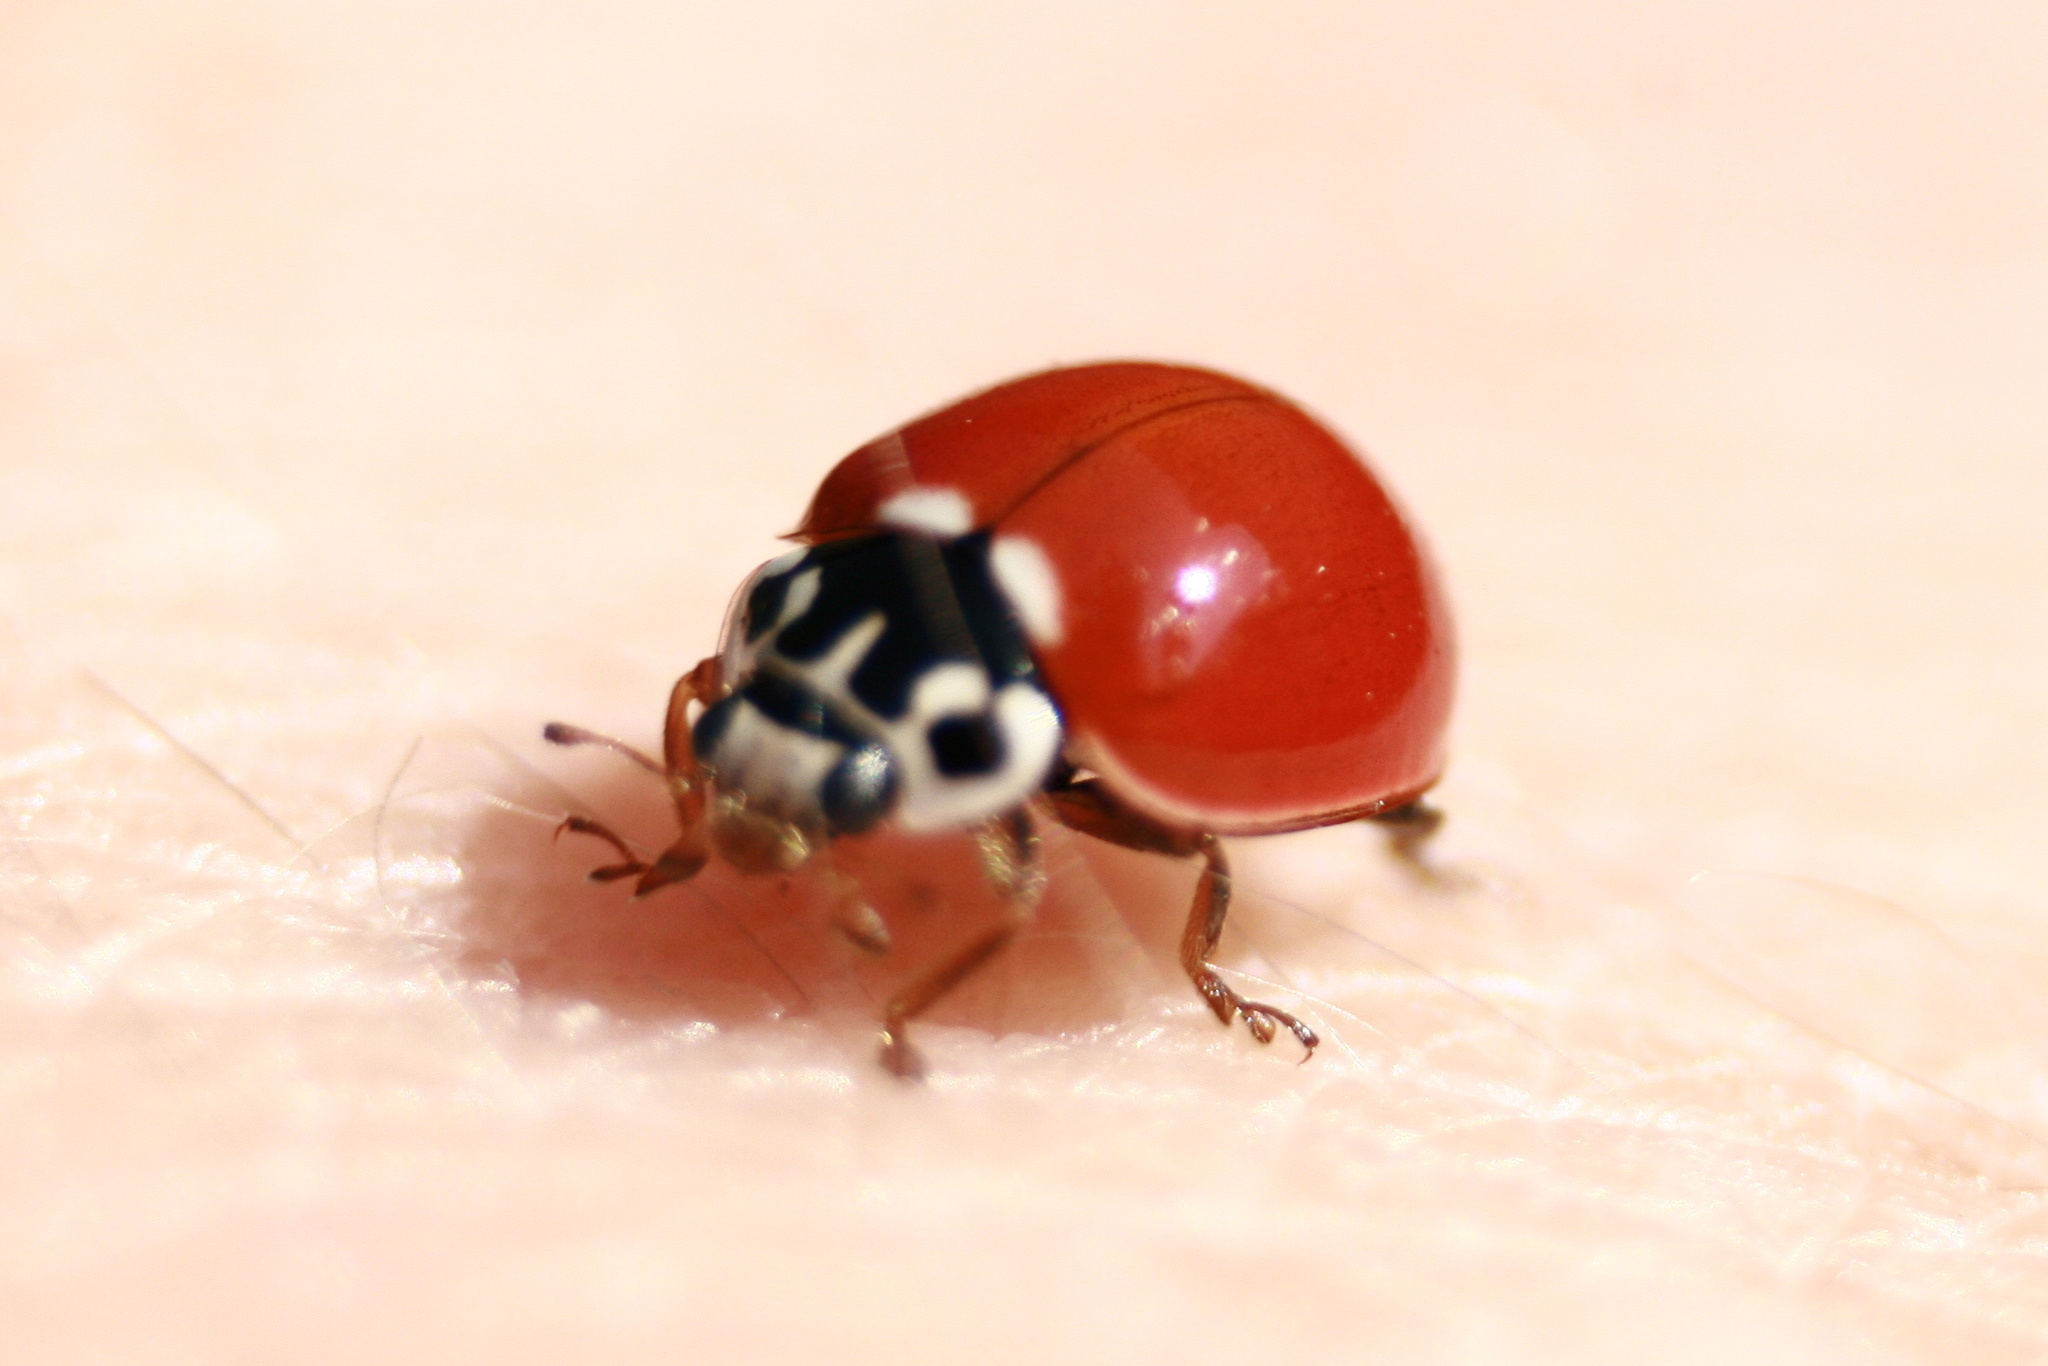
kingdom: Animalia
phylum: Arthropoda
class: Insecta
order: Coleoptera
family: Coccinellidae
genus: Cycloneda
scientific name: Cycloneda polita
